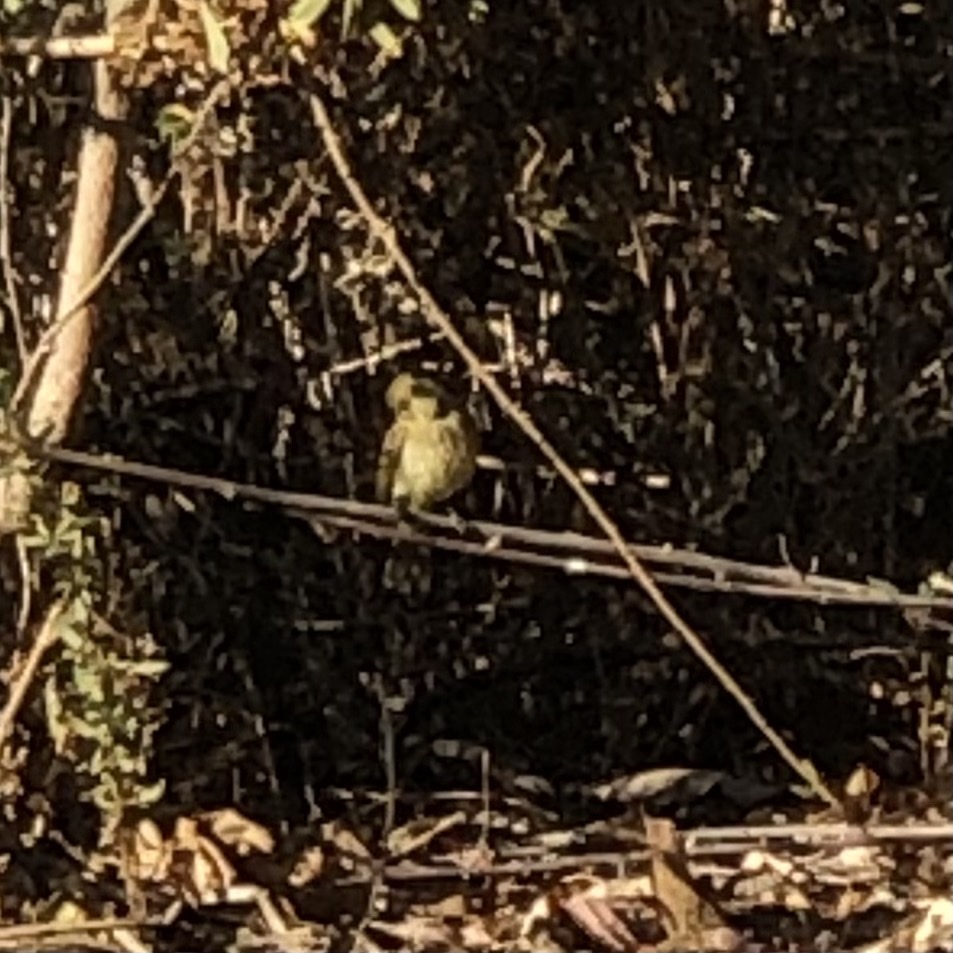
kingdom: Animalia
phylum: Chordata
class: Aves
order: Passeriformes
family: Tyrannidae
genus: Empidonax
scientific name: Empidonax difficilis
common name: Pacific-slope flycatcher
